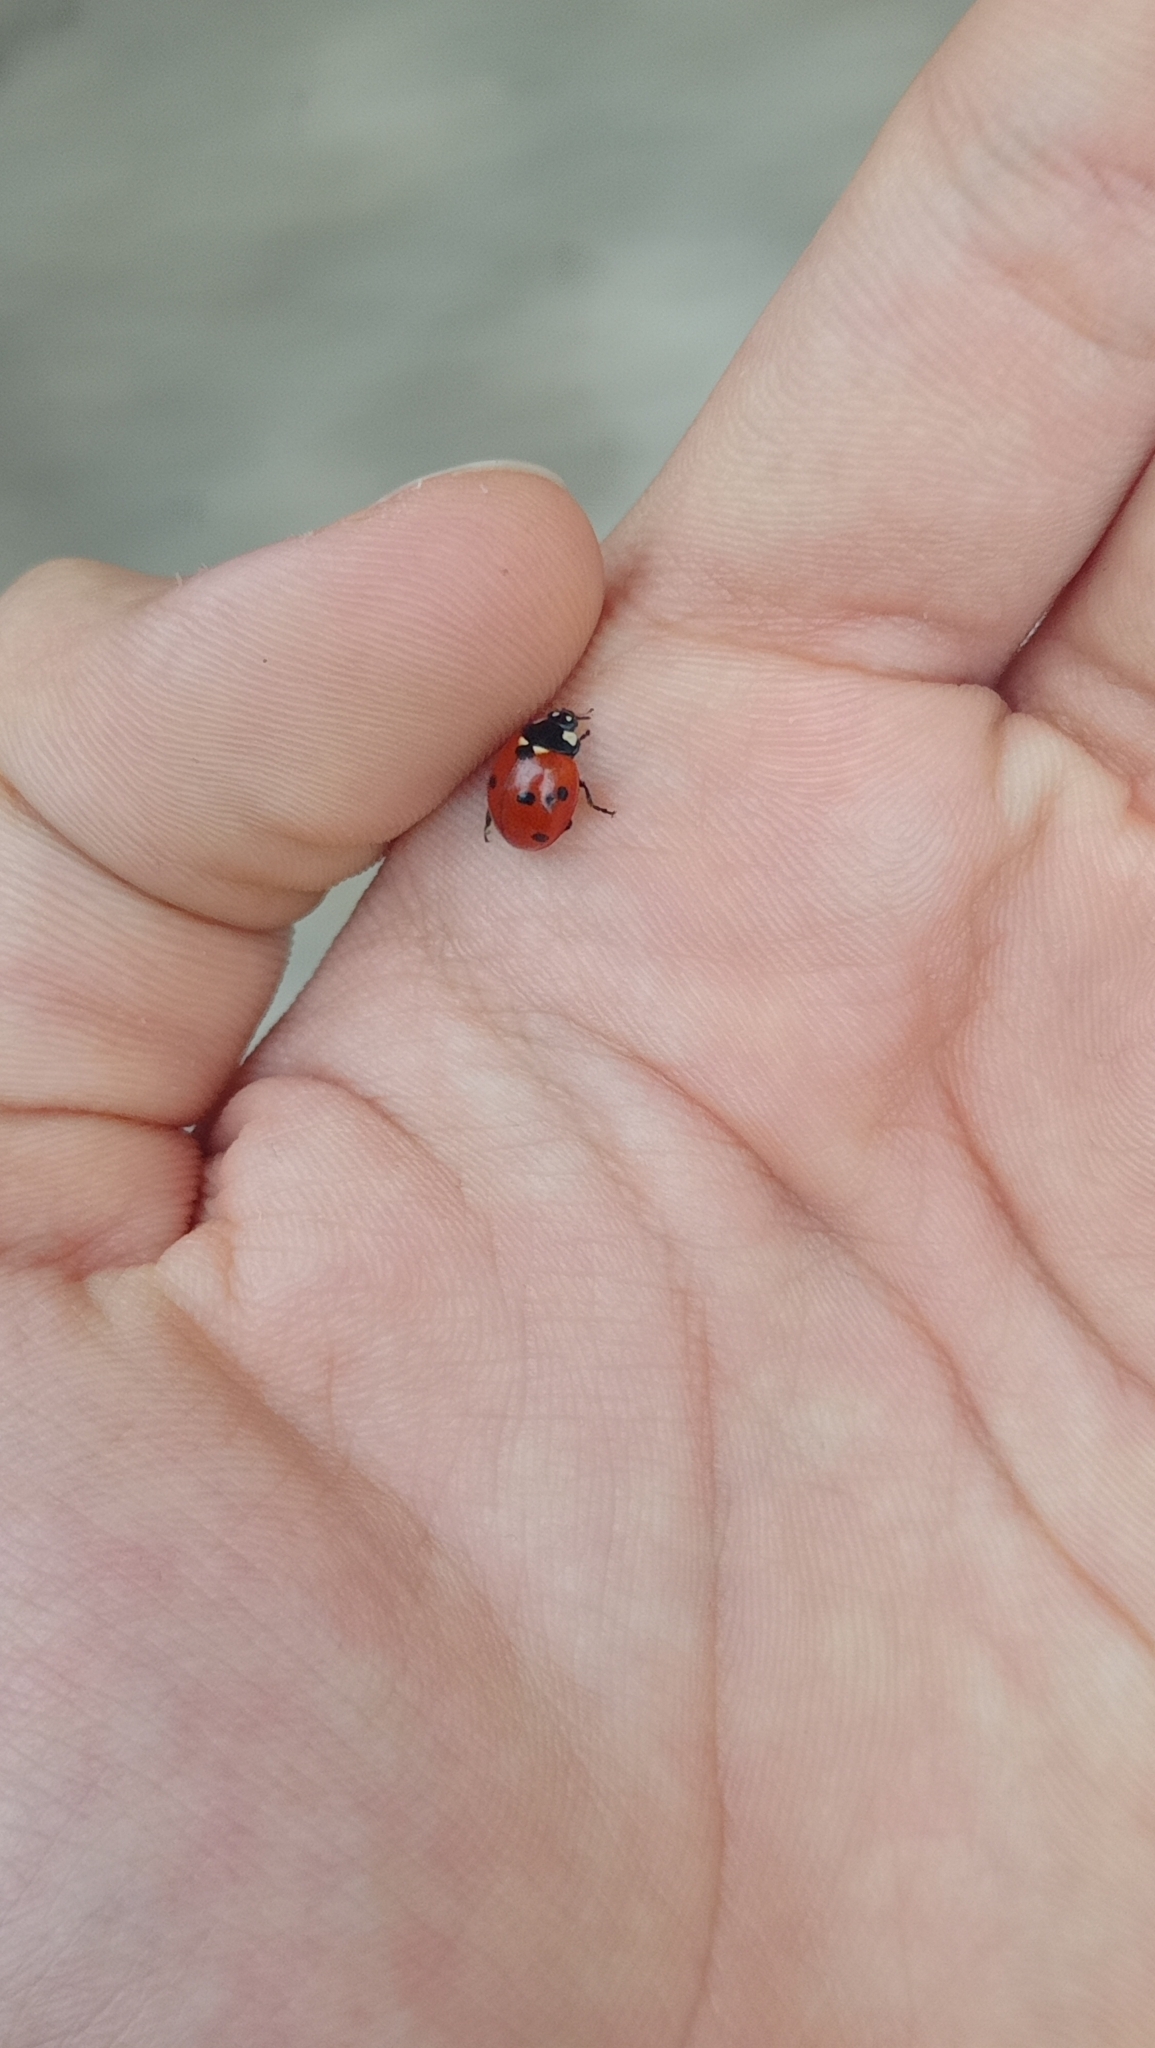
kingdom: Animalia
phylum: Arthropoda
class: Insecta
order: Coleoptera
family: Coccinellidae
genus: Coccinella
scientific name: Coccinella septempunctata
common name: Sevenspotted lady beetle
